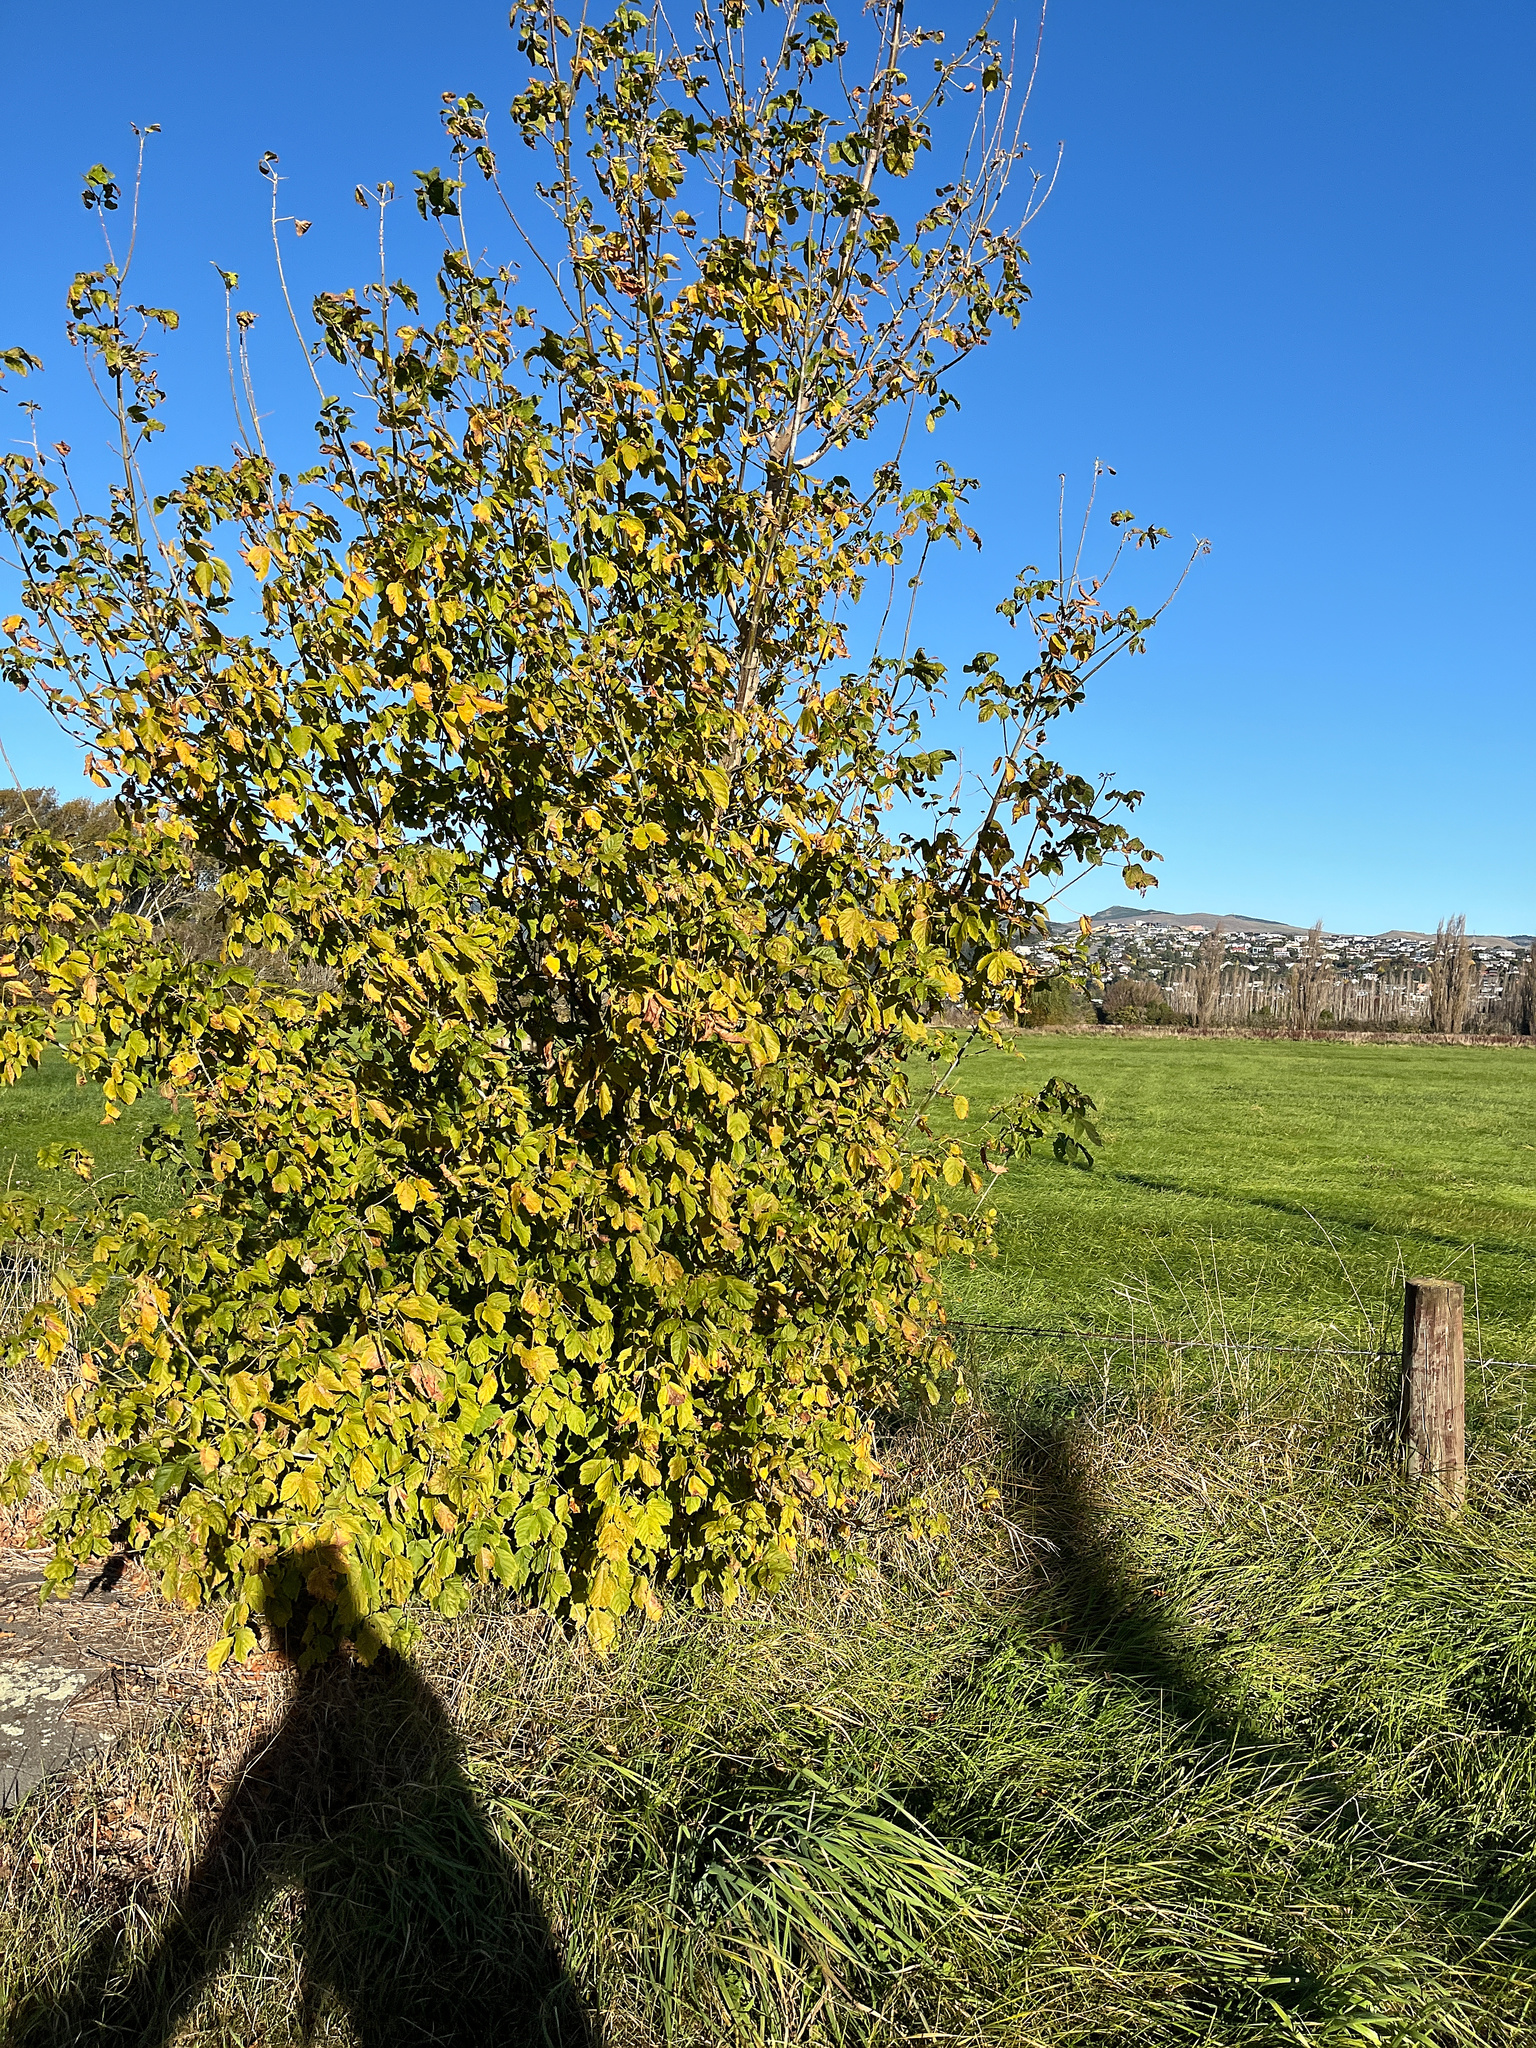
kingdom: Plantae
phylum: Tracheophyta
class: Magnoliopsida
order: Sapindales
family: Sapindaceae
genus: Acer
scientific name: Acer negundo
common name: Ashleaf maple
